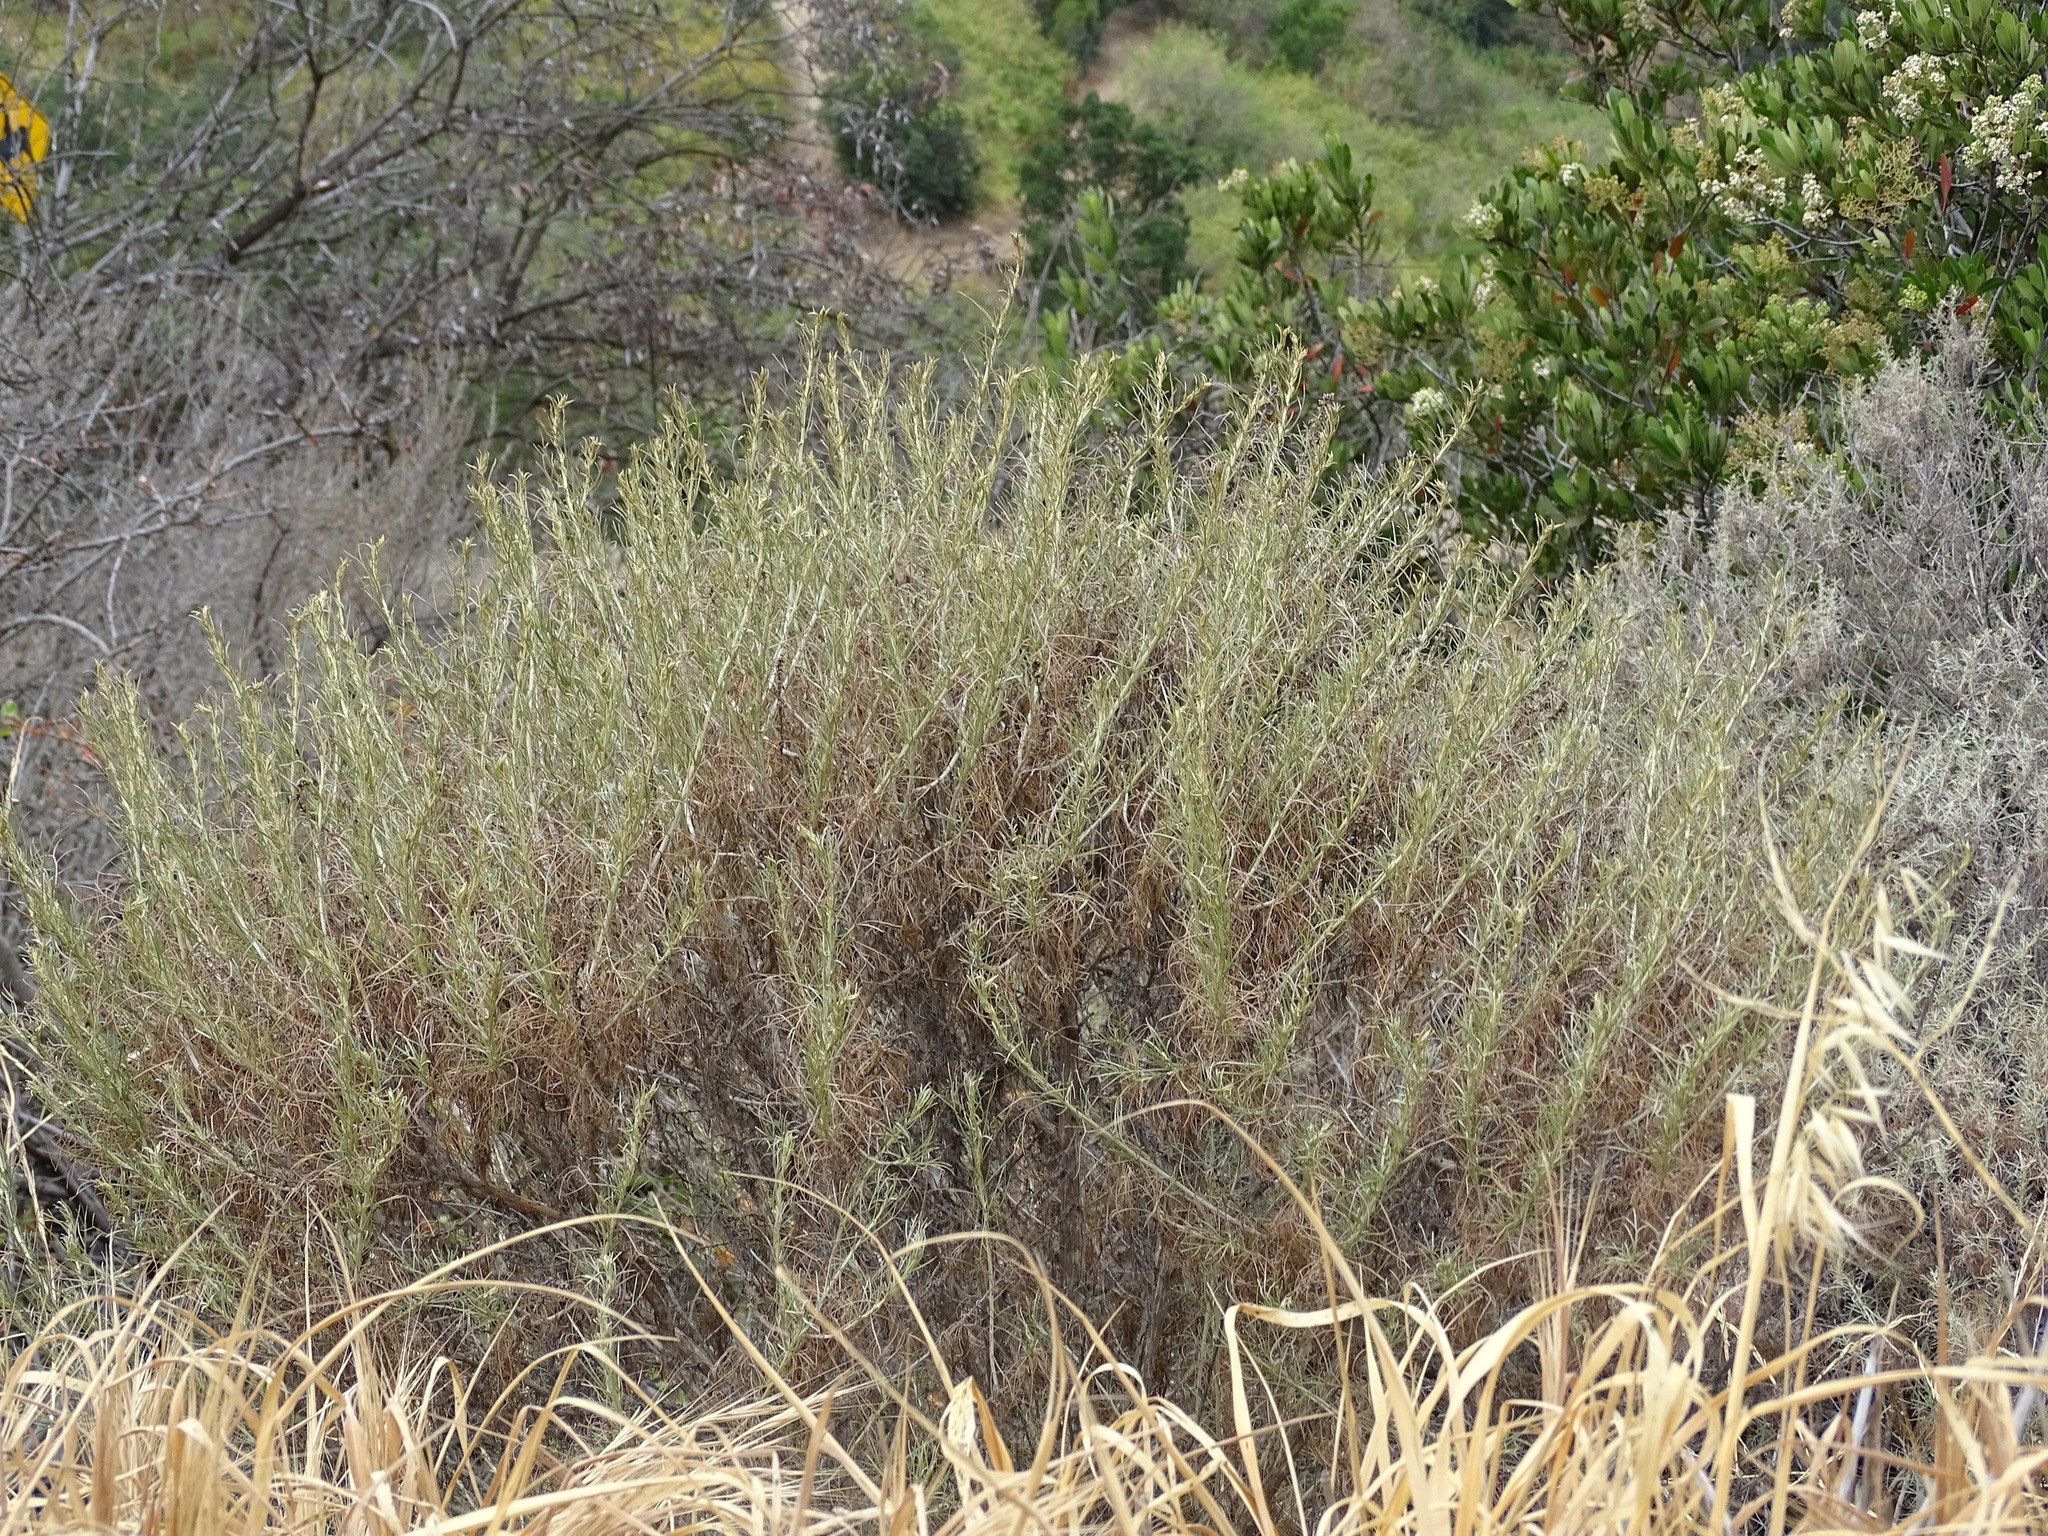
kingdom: Plantae
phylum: Tracheophyta
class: Magnoliopsida
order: Asterales
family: Asteraceae
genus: Artemisia
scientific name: Artemisia californica
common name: California sagebrush
